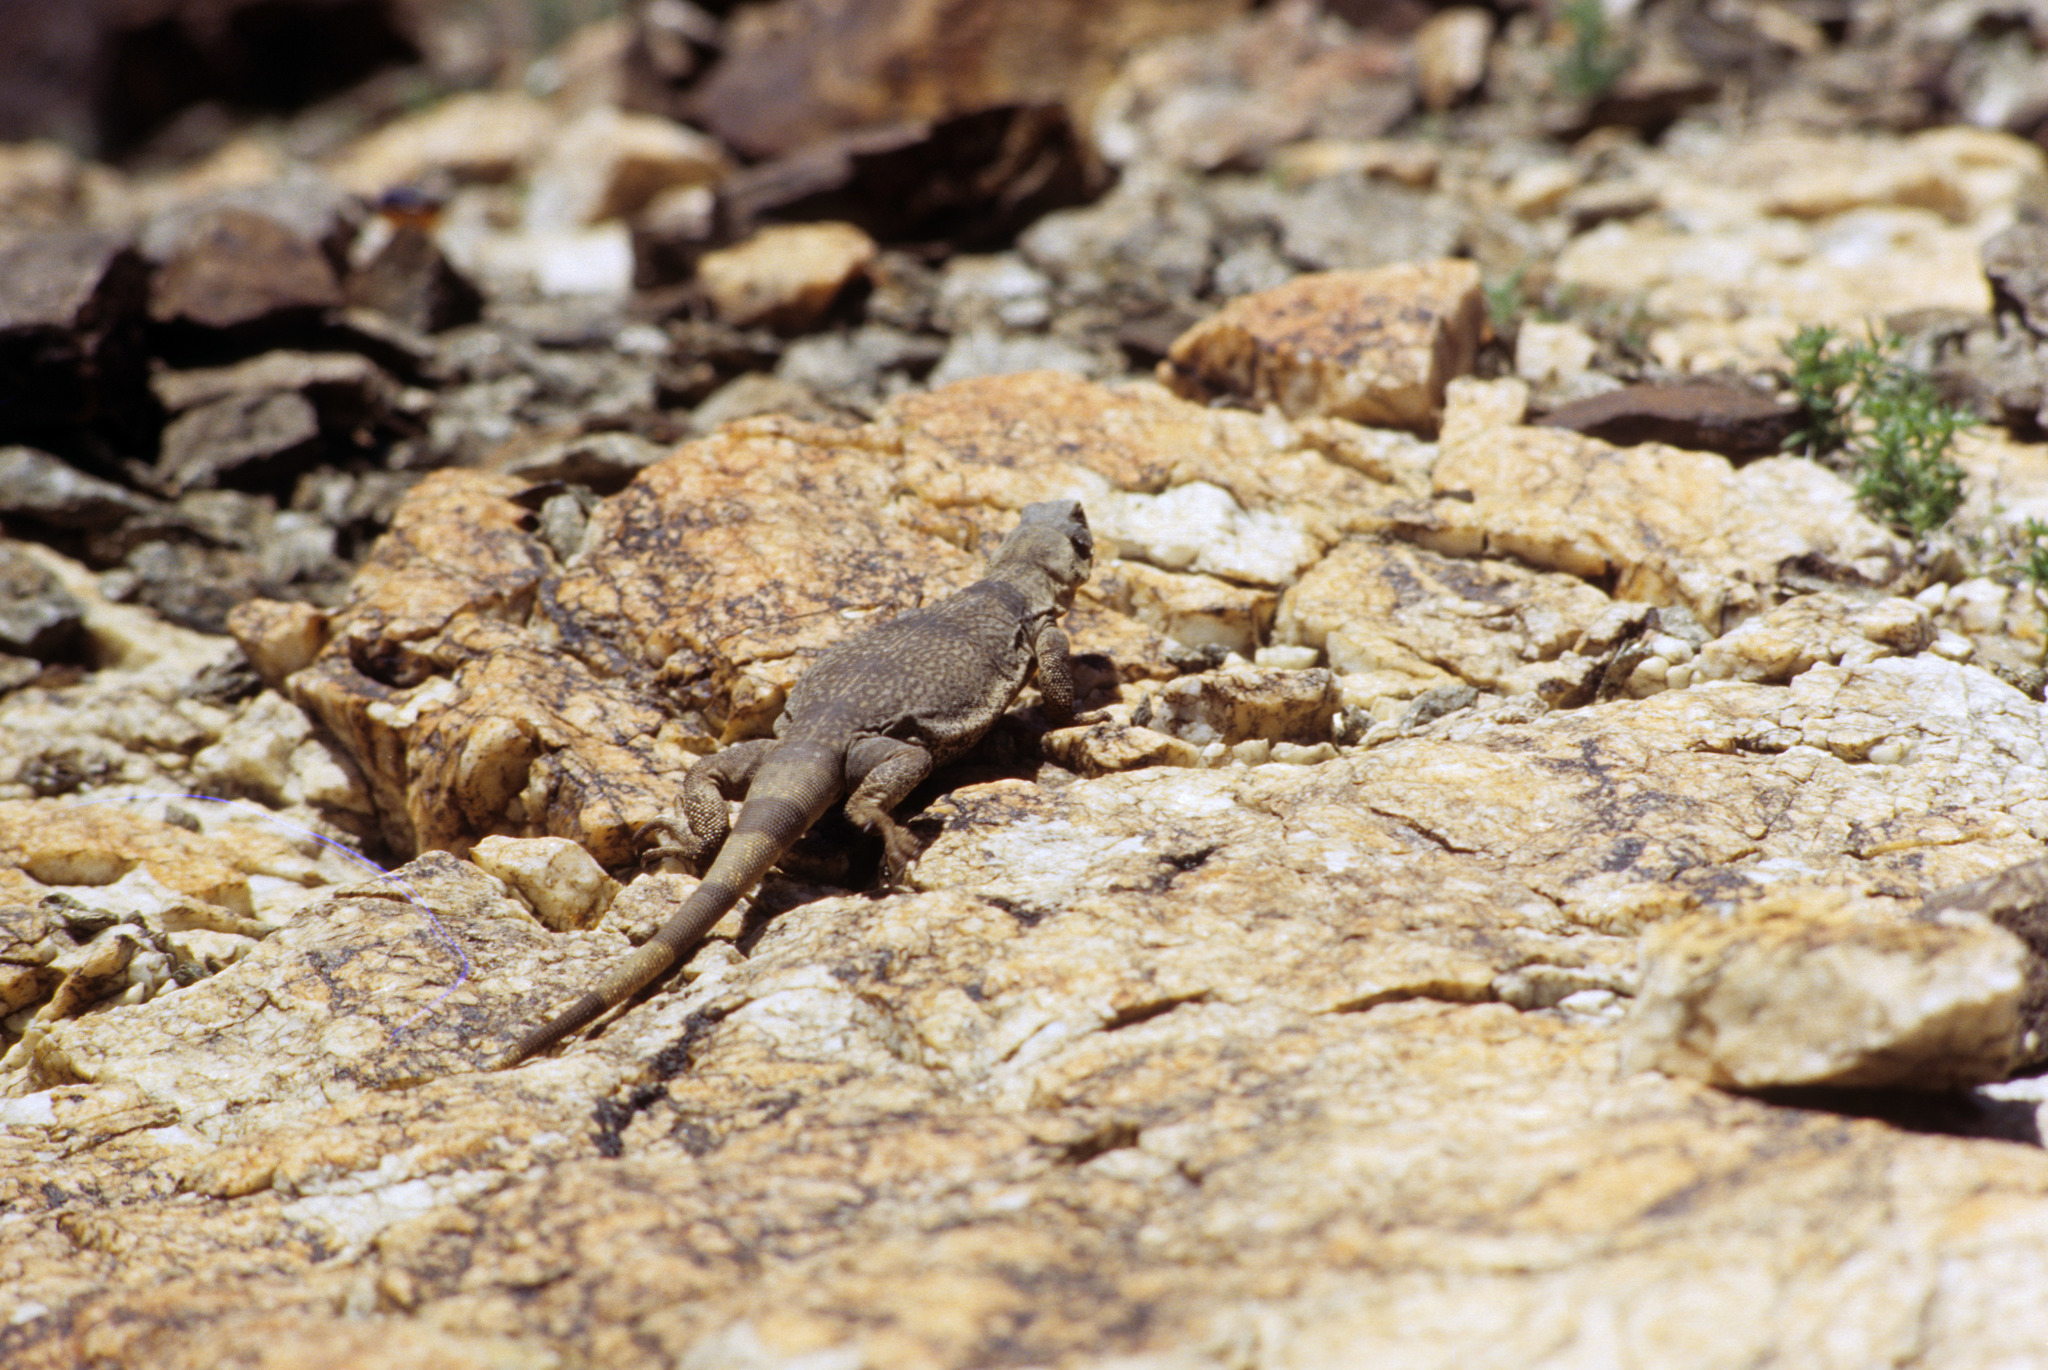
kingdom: Animalia
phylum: Chordata
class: Squamata
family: Iguanidae
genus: Sauromalus
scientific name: Sauromalus ater
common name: Northern chuckwalla
